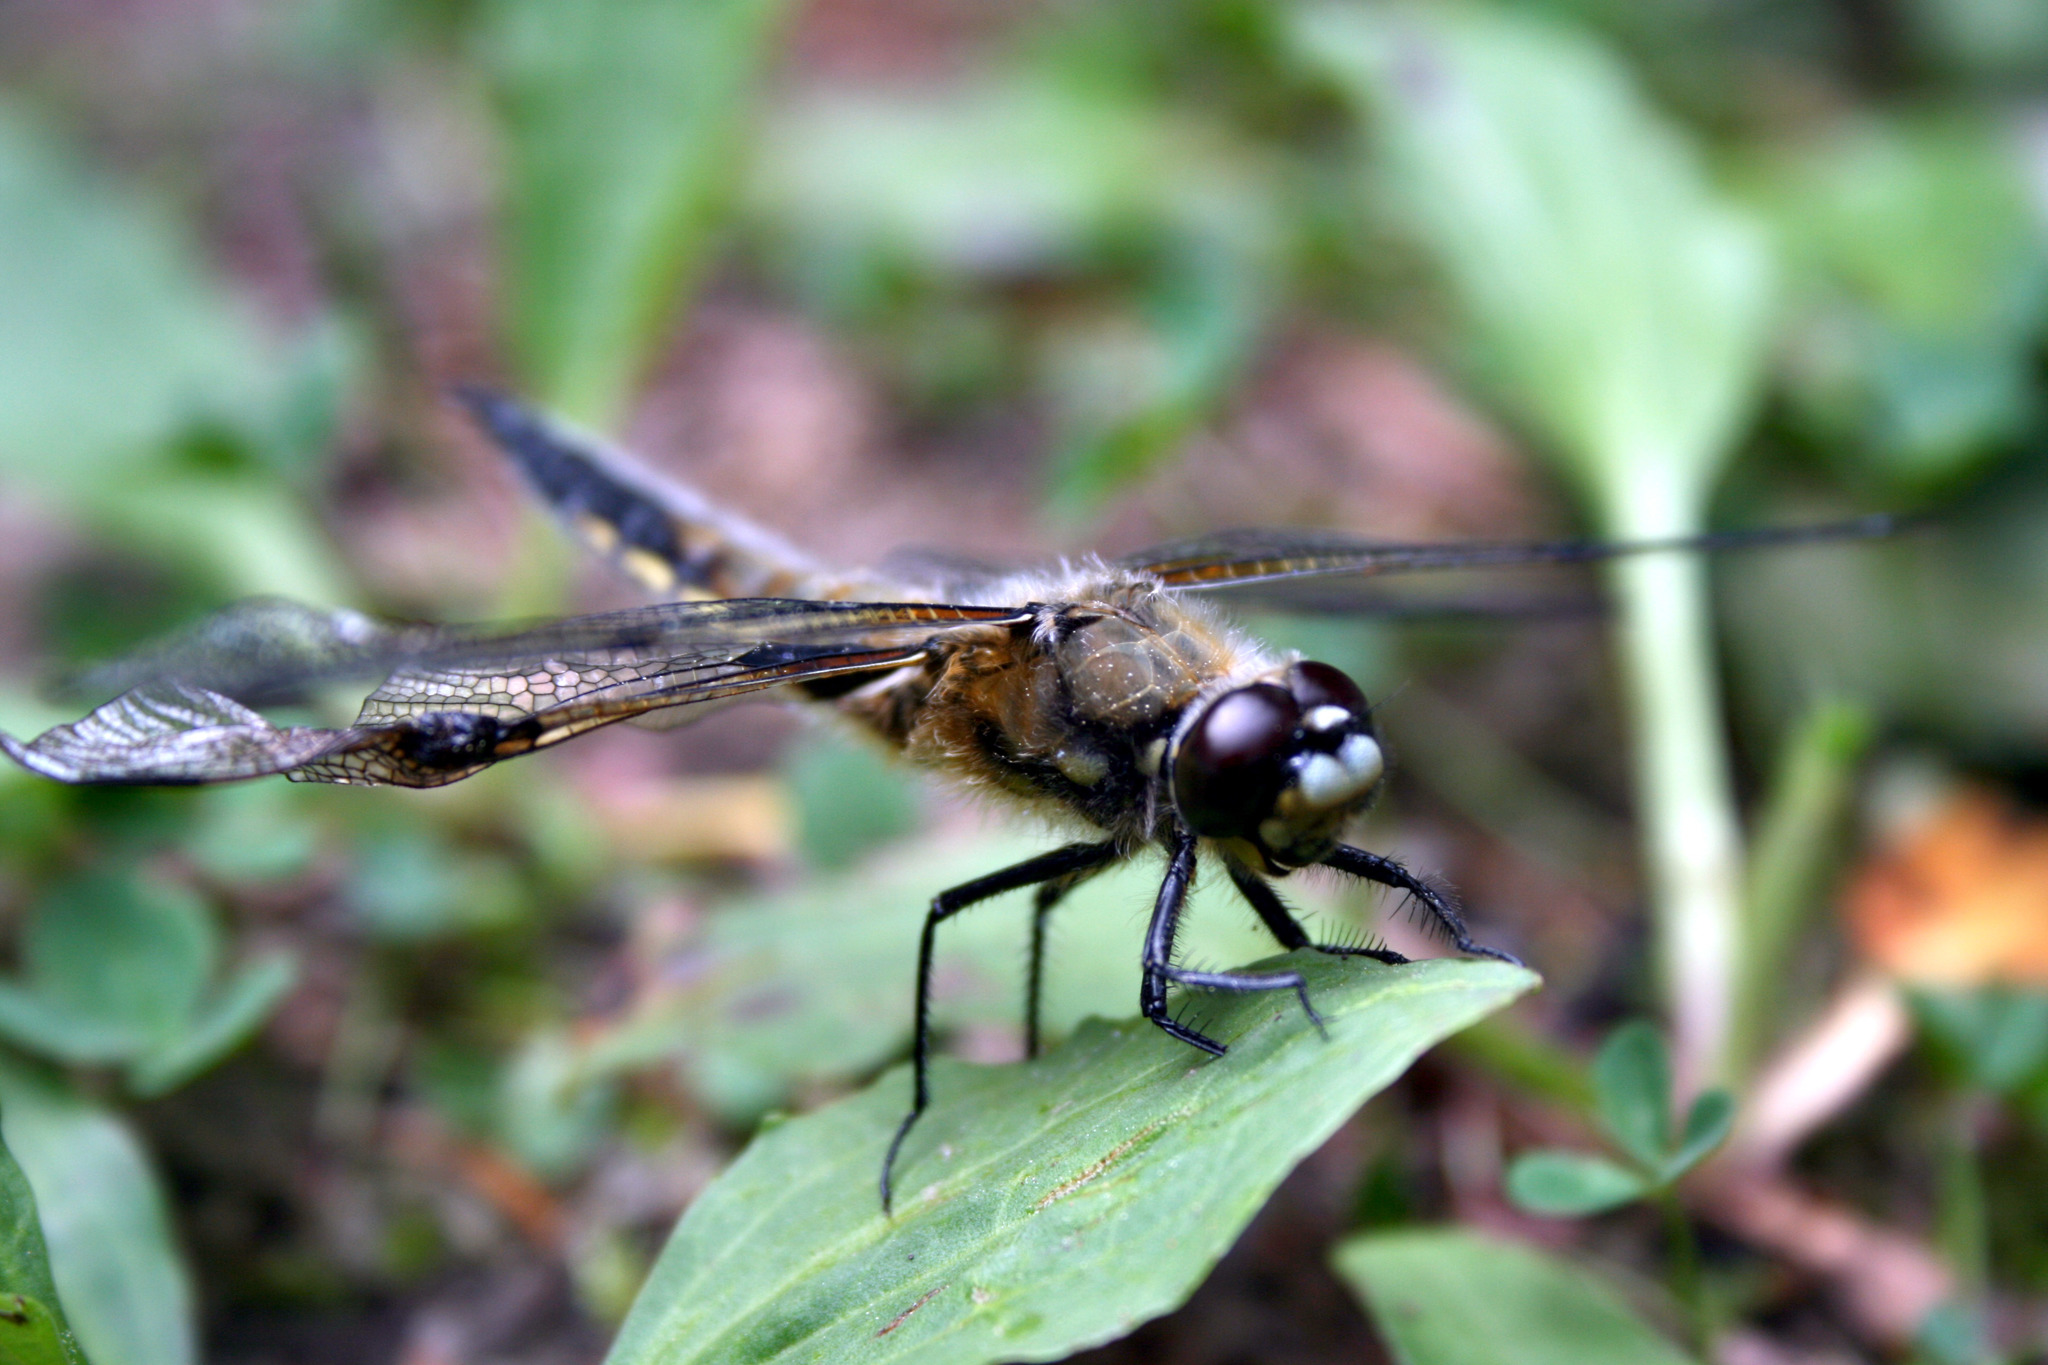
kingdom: Animalia
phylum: Arthropoda
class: Insecta
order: Odonata
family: Libellulidae
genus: Libellula
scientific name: Libellula quadrimaculata
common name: Four-spotted chaser
